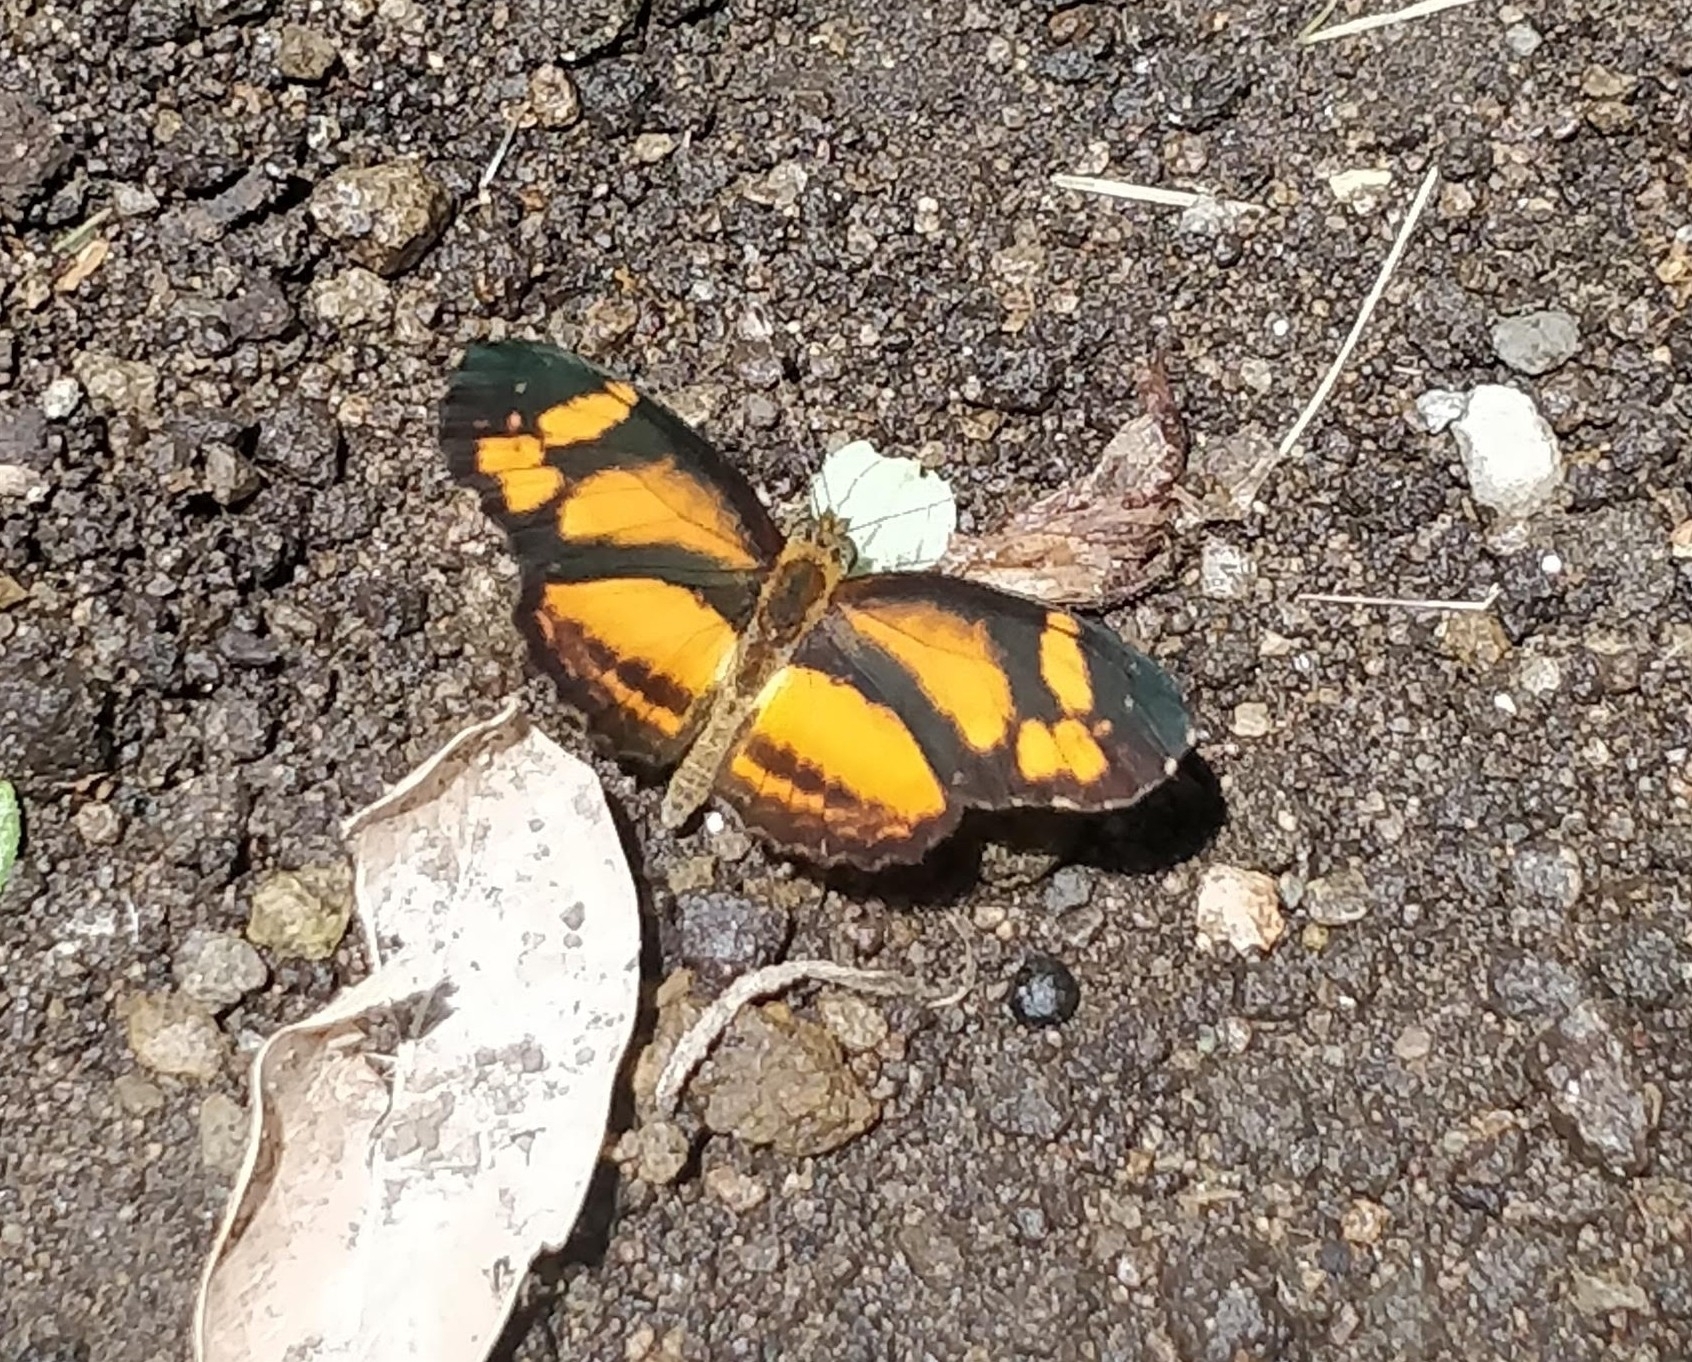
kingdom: Animalia
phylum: Arthropoda
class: Insecta
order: Lepidoptera
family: Nymphalidae
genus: Castilia
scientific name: Castilia eranites
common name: Smudged crescent
